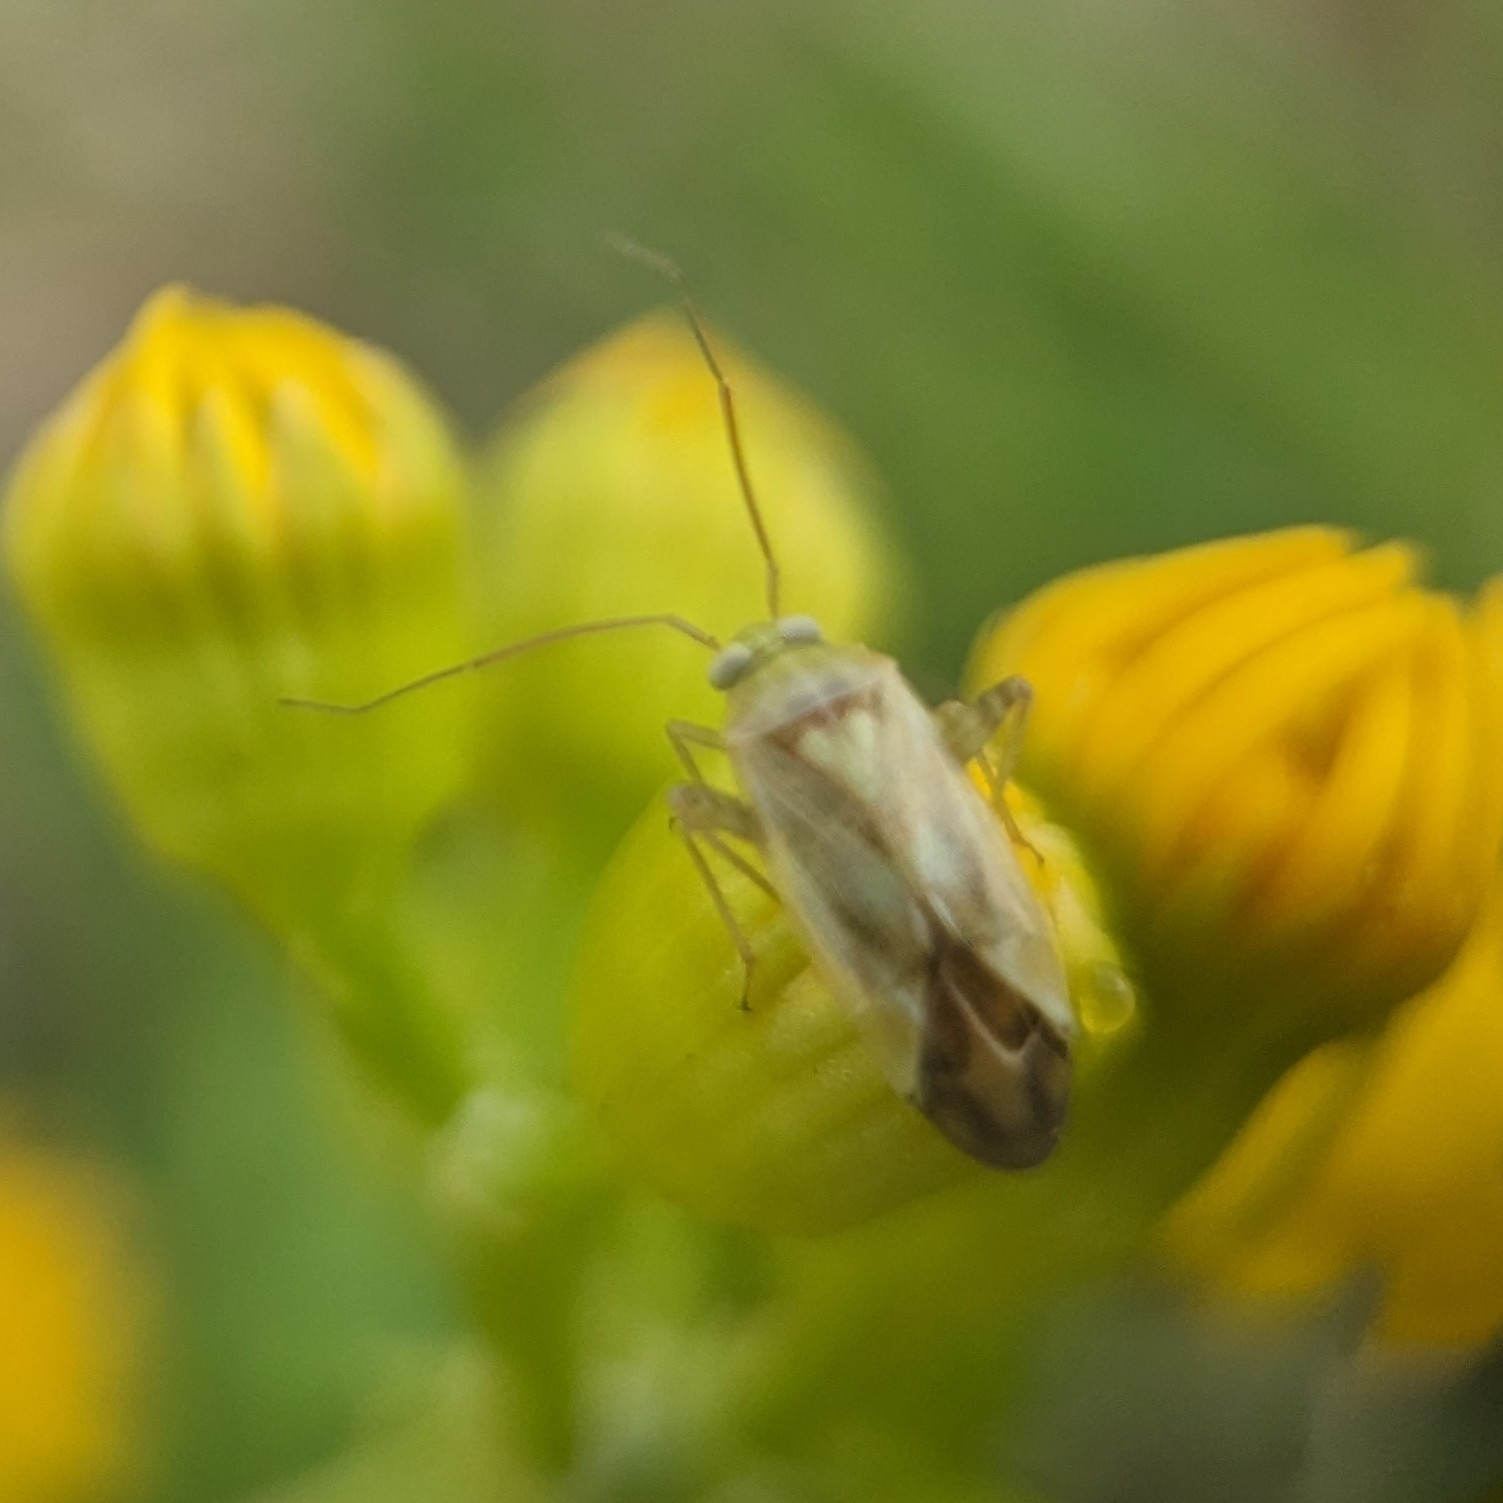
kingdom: Animalia
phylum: Arthropoda
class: Insecta
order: Hemiptera
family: Miridae
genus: Taylorilygus
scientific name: Taylorilygus apicalis
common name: Plant bug
